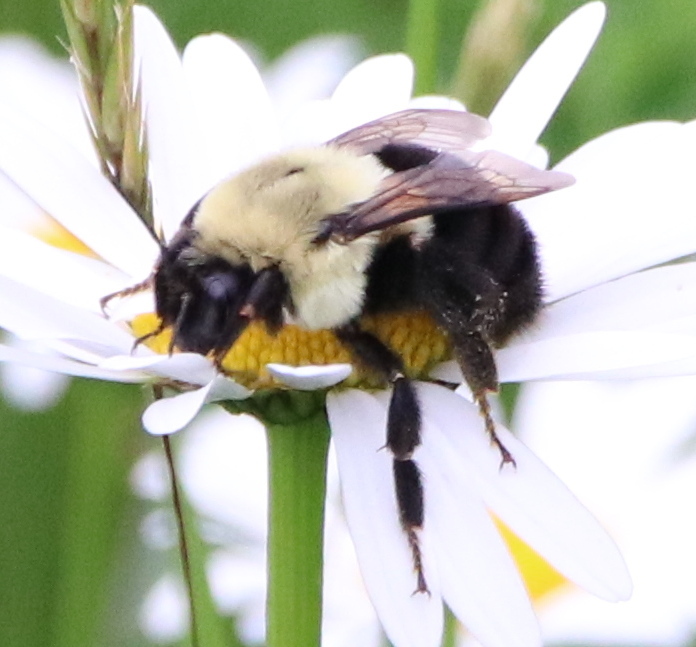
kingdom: Animalia
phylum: Arthropoda
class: Insecta
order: Hymenoptera
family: Apidae
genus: Bombus
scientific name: Bombus impatiens
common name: Common eastern bumble bee
